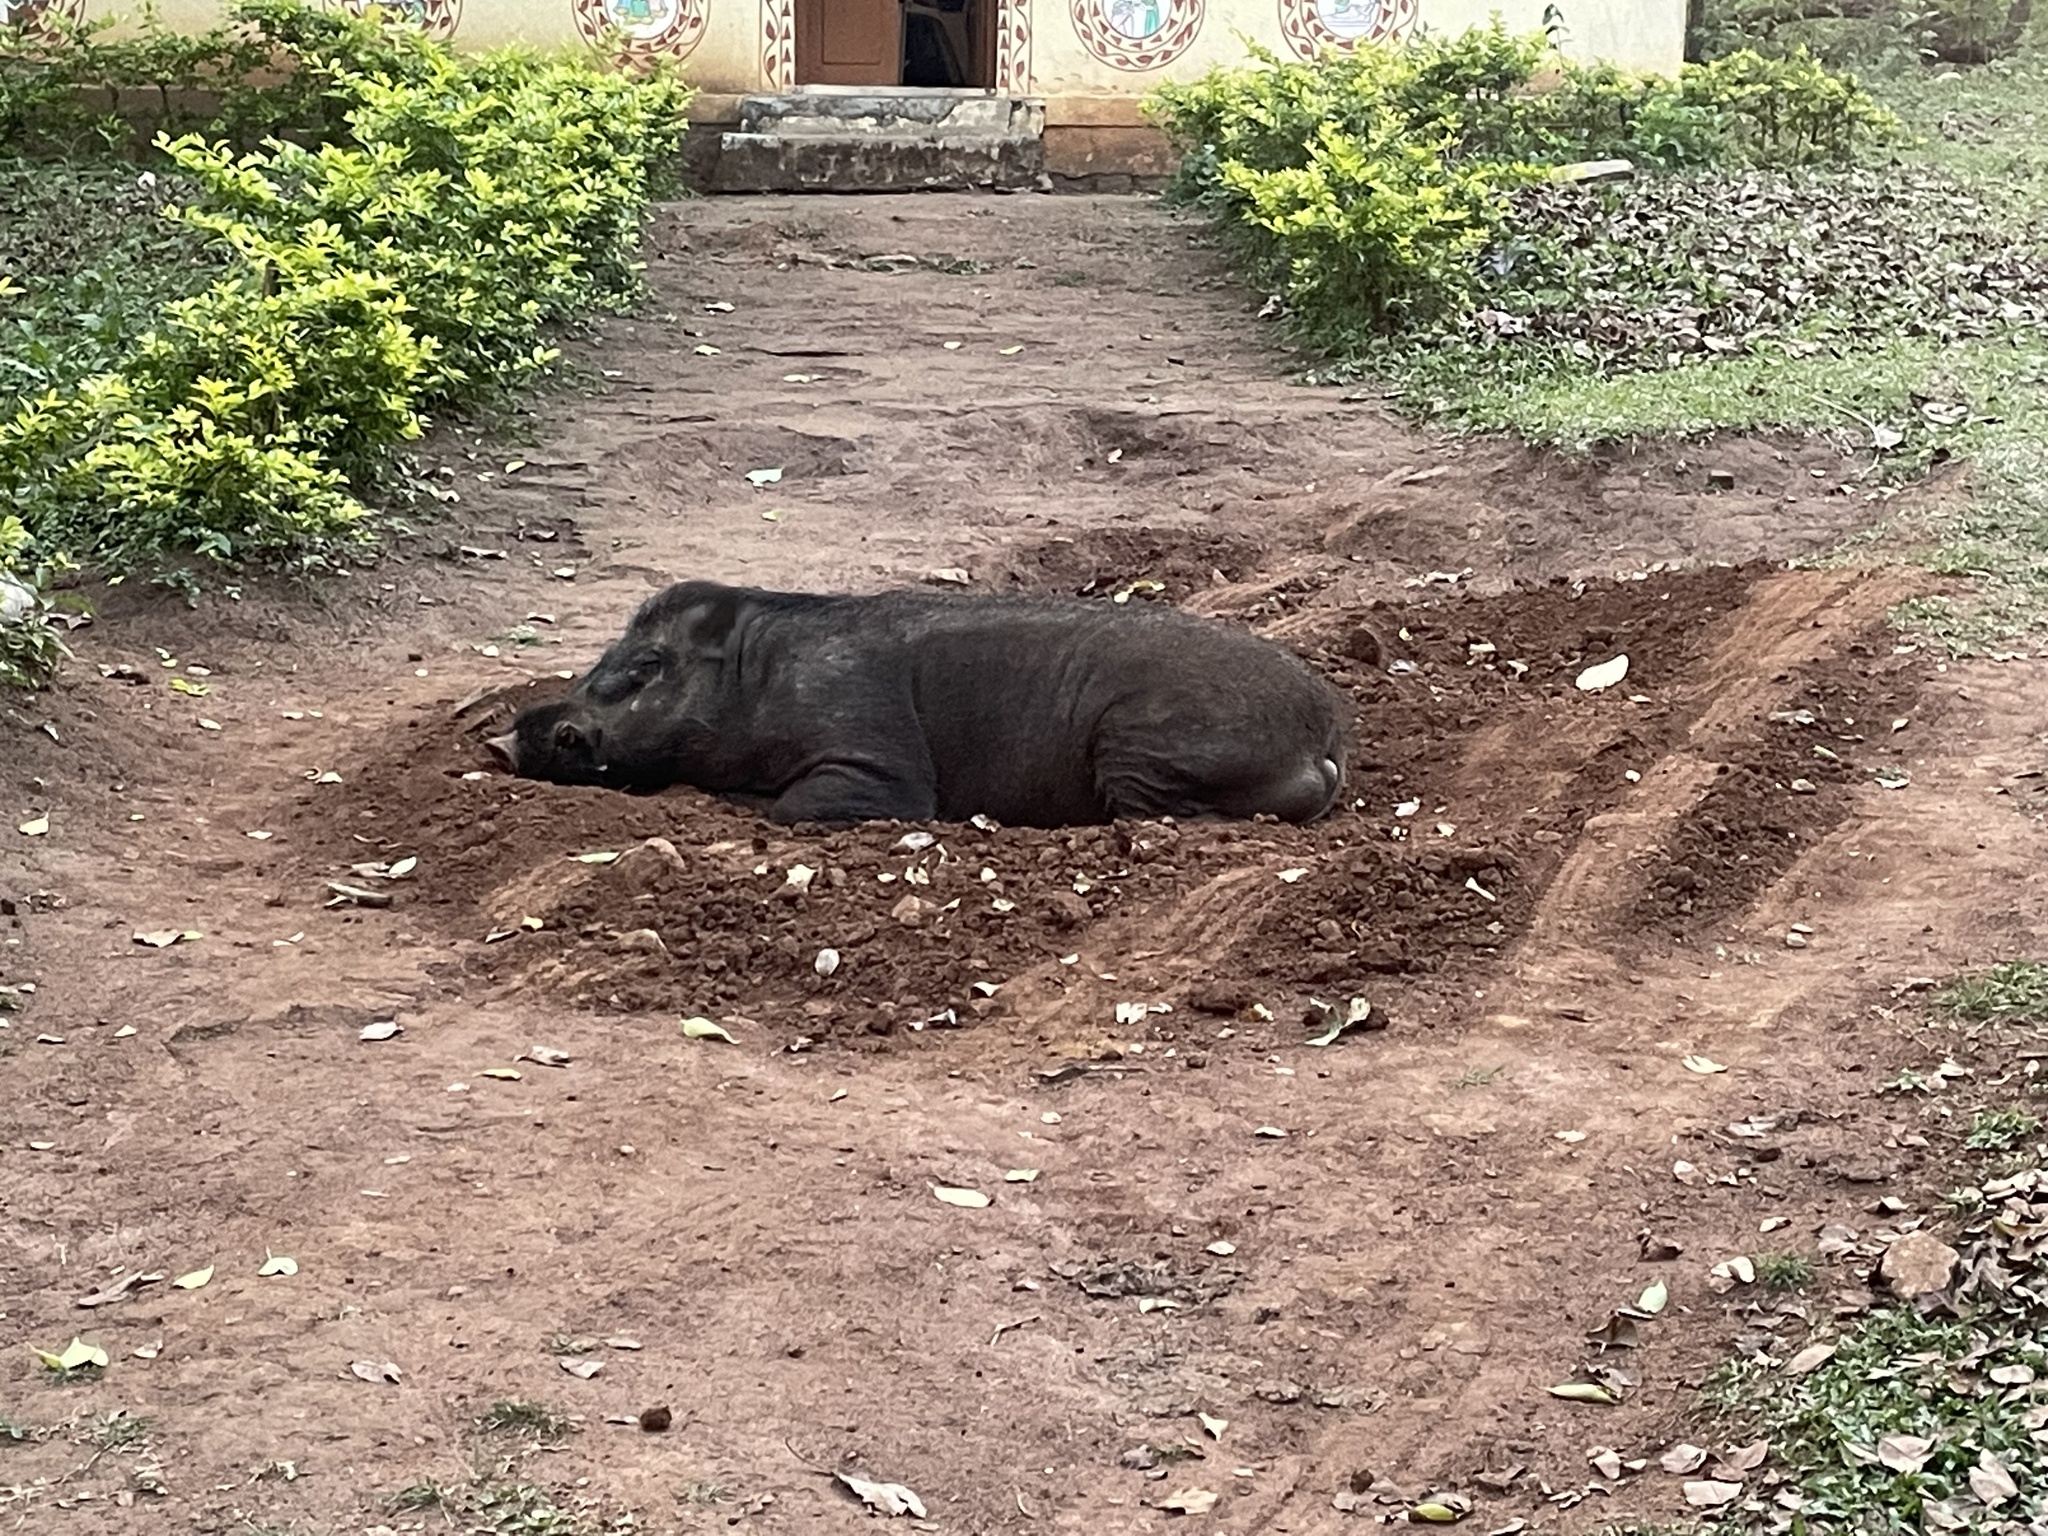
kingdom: Animalia
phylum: Chordata
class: Mammalia
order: Artiodactyla
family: Suidae
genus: Sus
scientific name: Sus scrofa
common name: Wild boar
